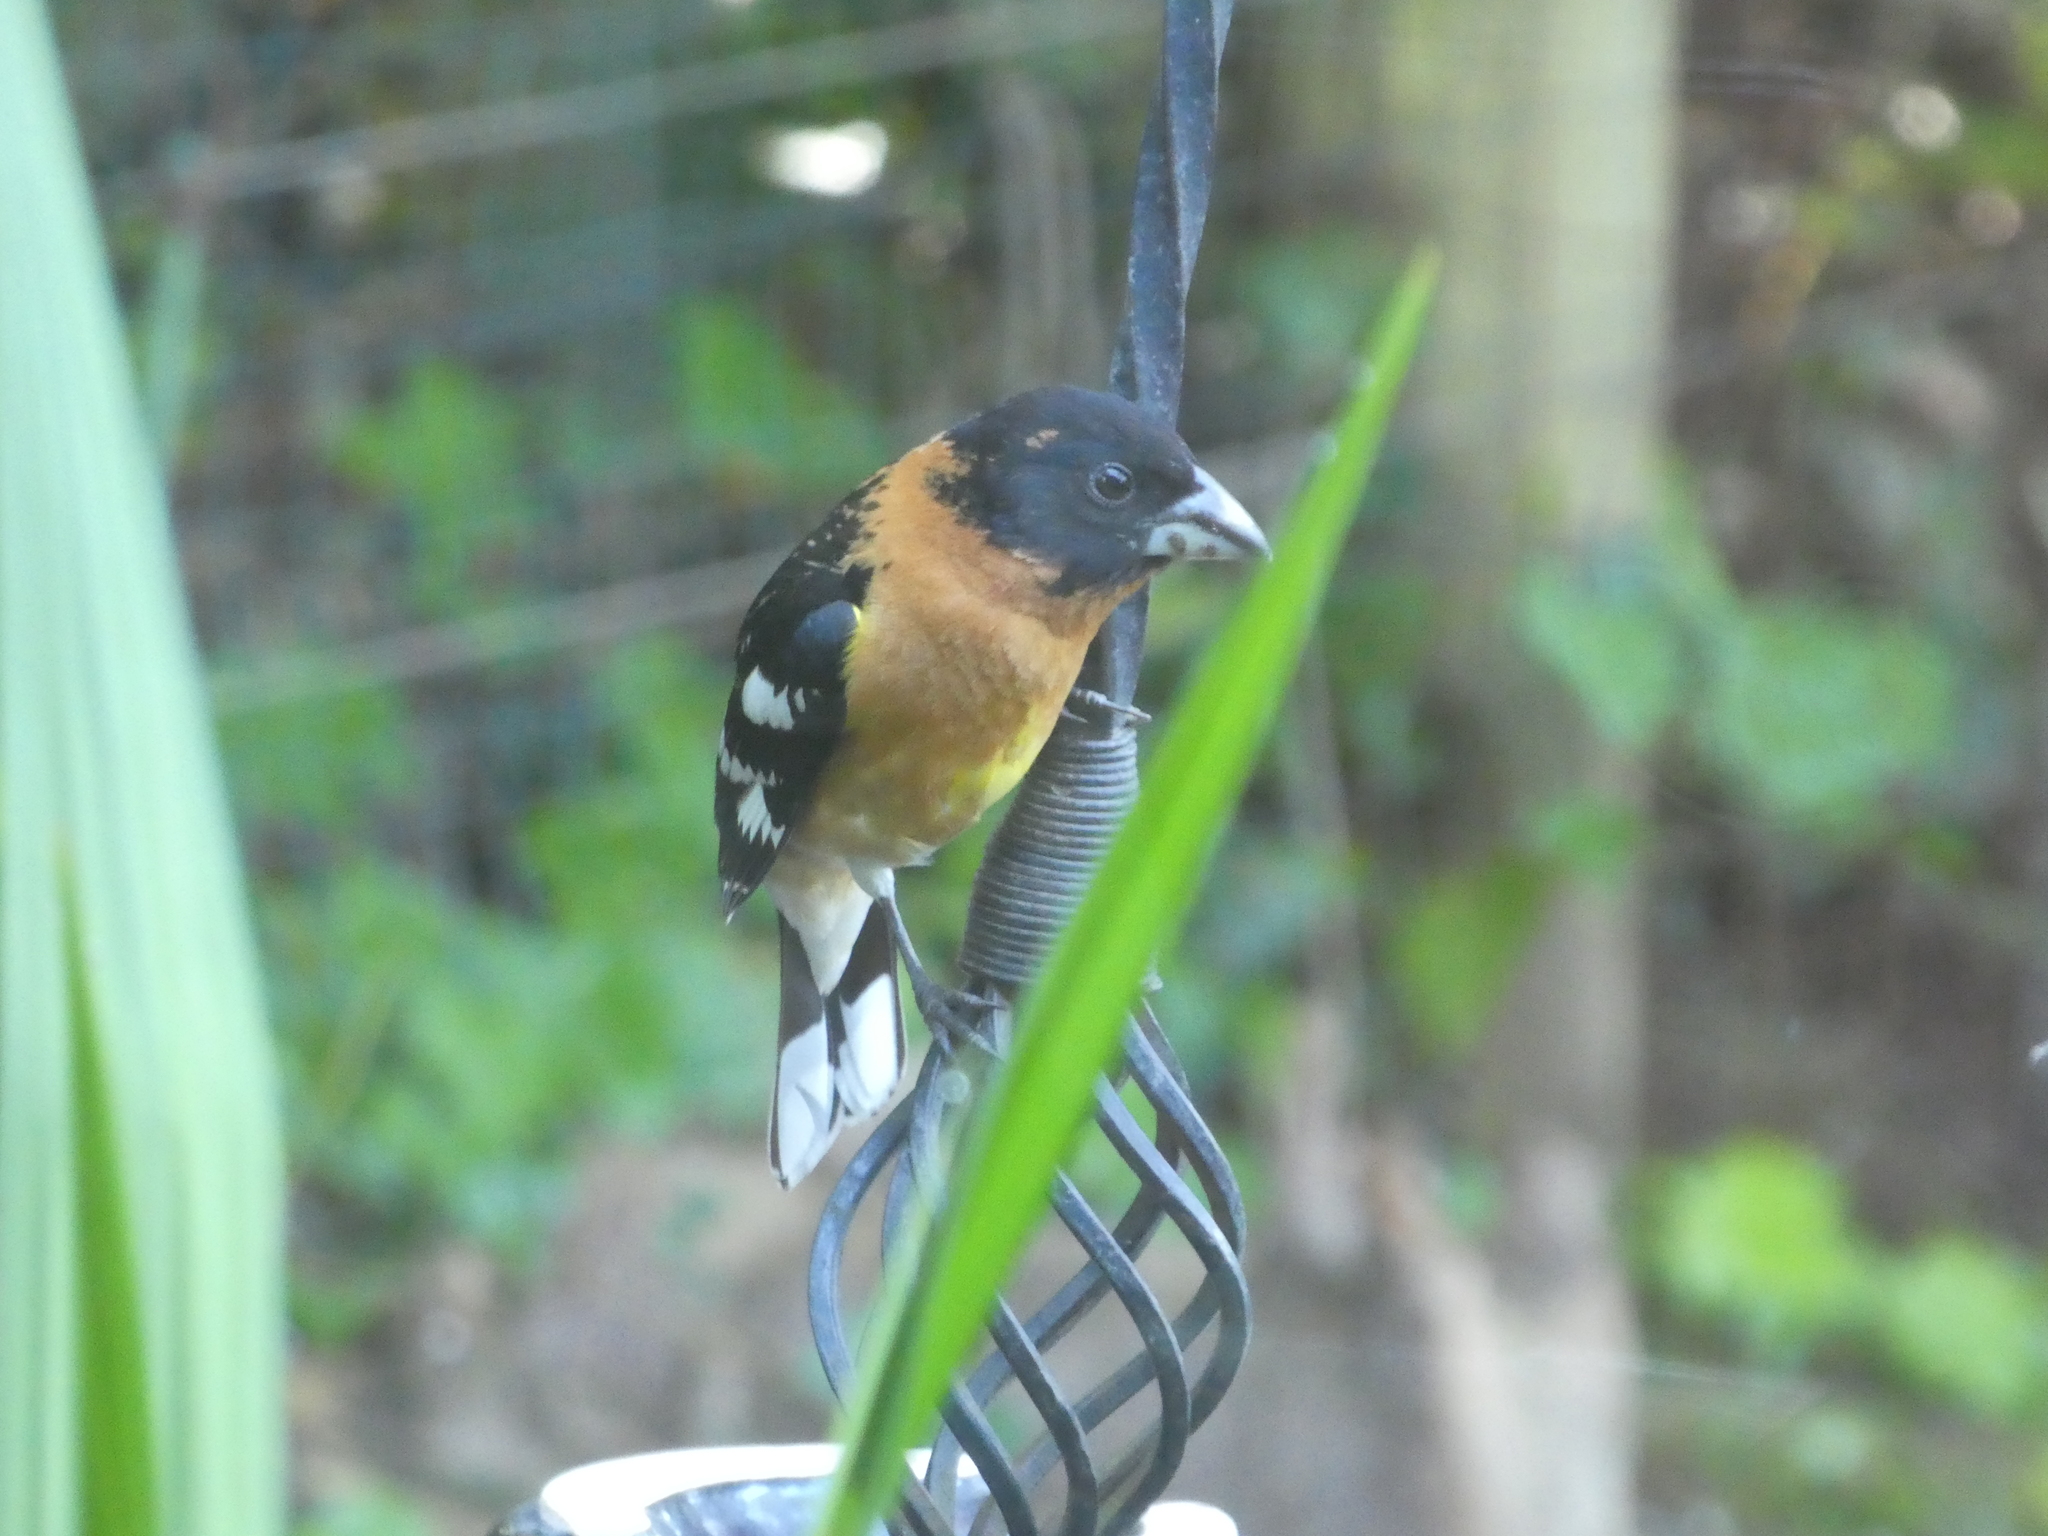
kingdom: Animalia
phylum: Chordata
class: Aves
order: Passeriformes
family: Cardinalidae
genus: Pheucticus
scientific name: Pheucticus melanocephalus
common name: Black-headed grosbeak
